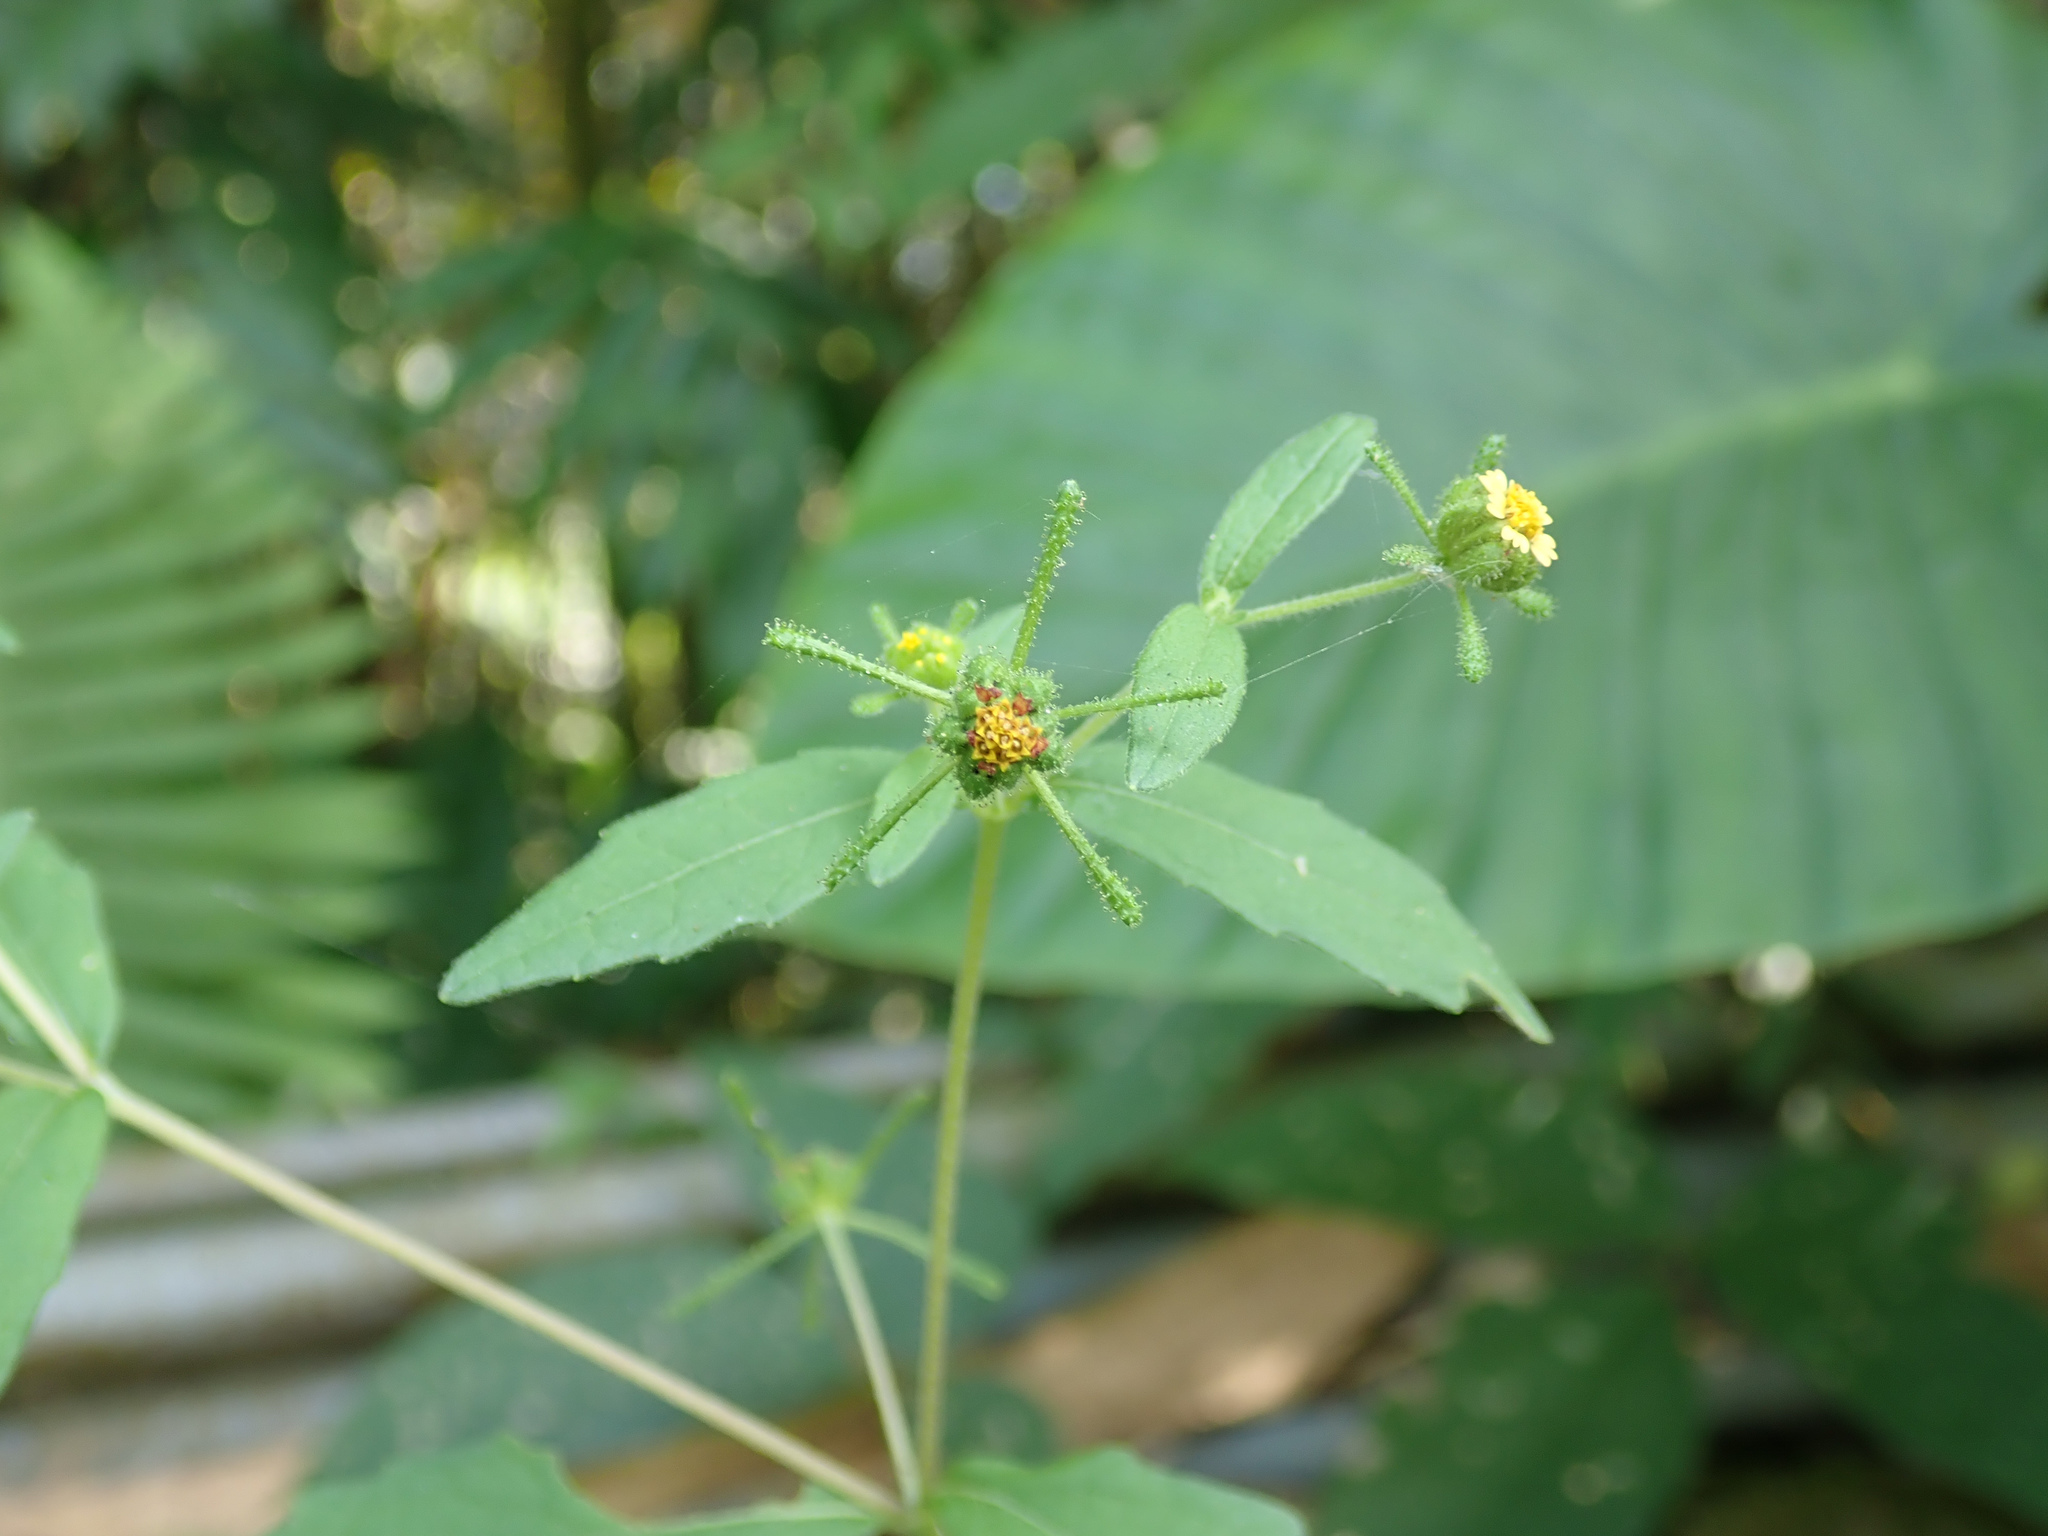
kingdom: Plantae
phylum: Tracheophyta
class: Magnoliopsida
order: Asterales
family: Asteraceae
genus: Sigesbeckia
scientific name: Sigesbeckia orientalis
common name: Eastern st paul's-wort
